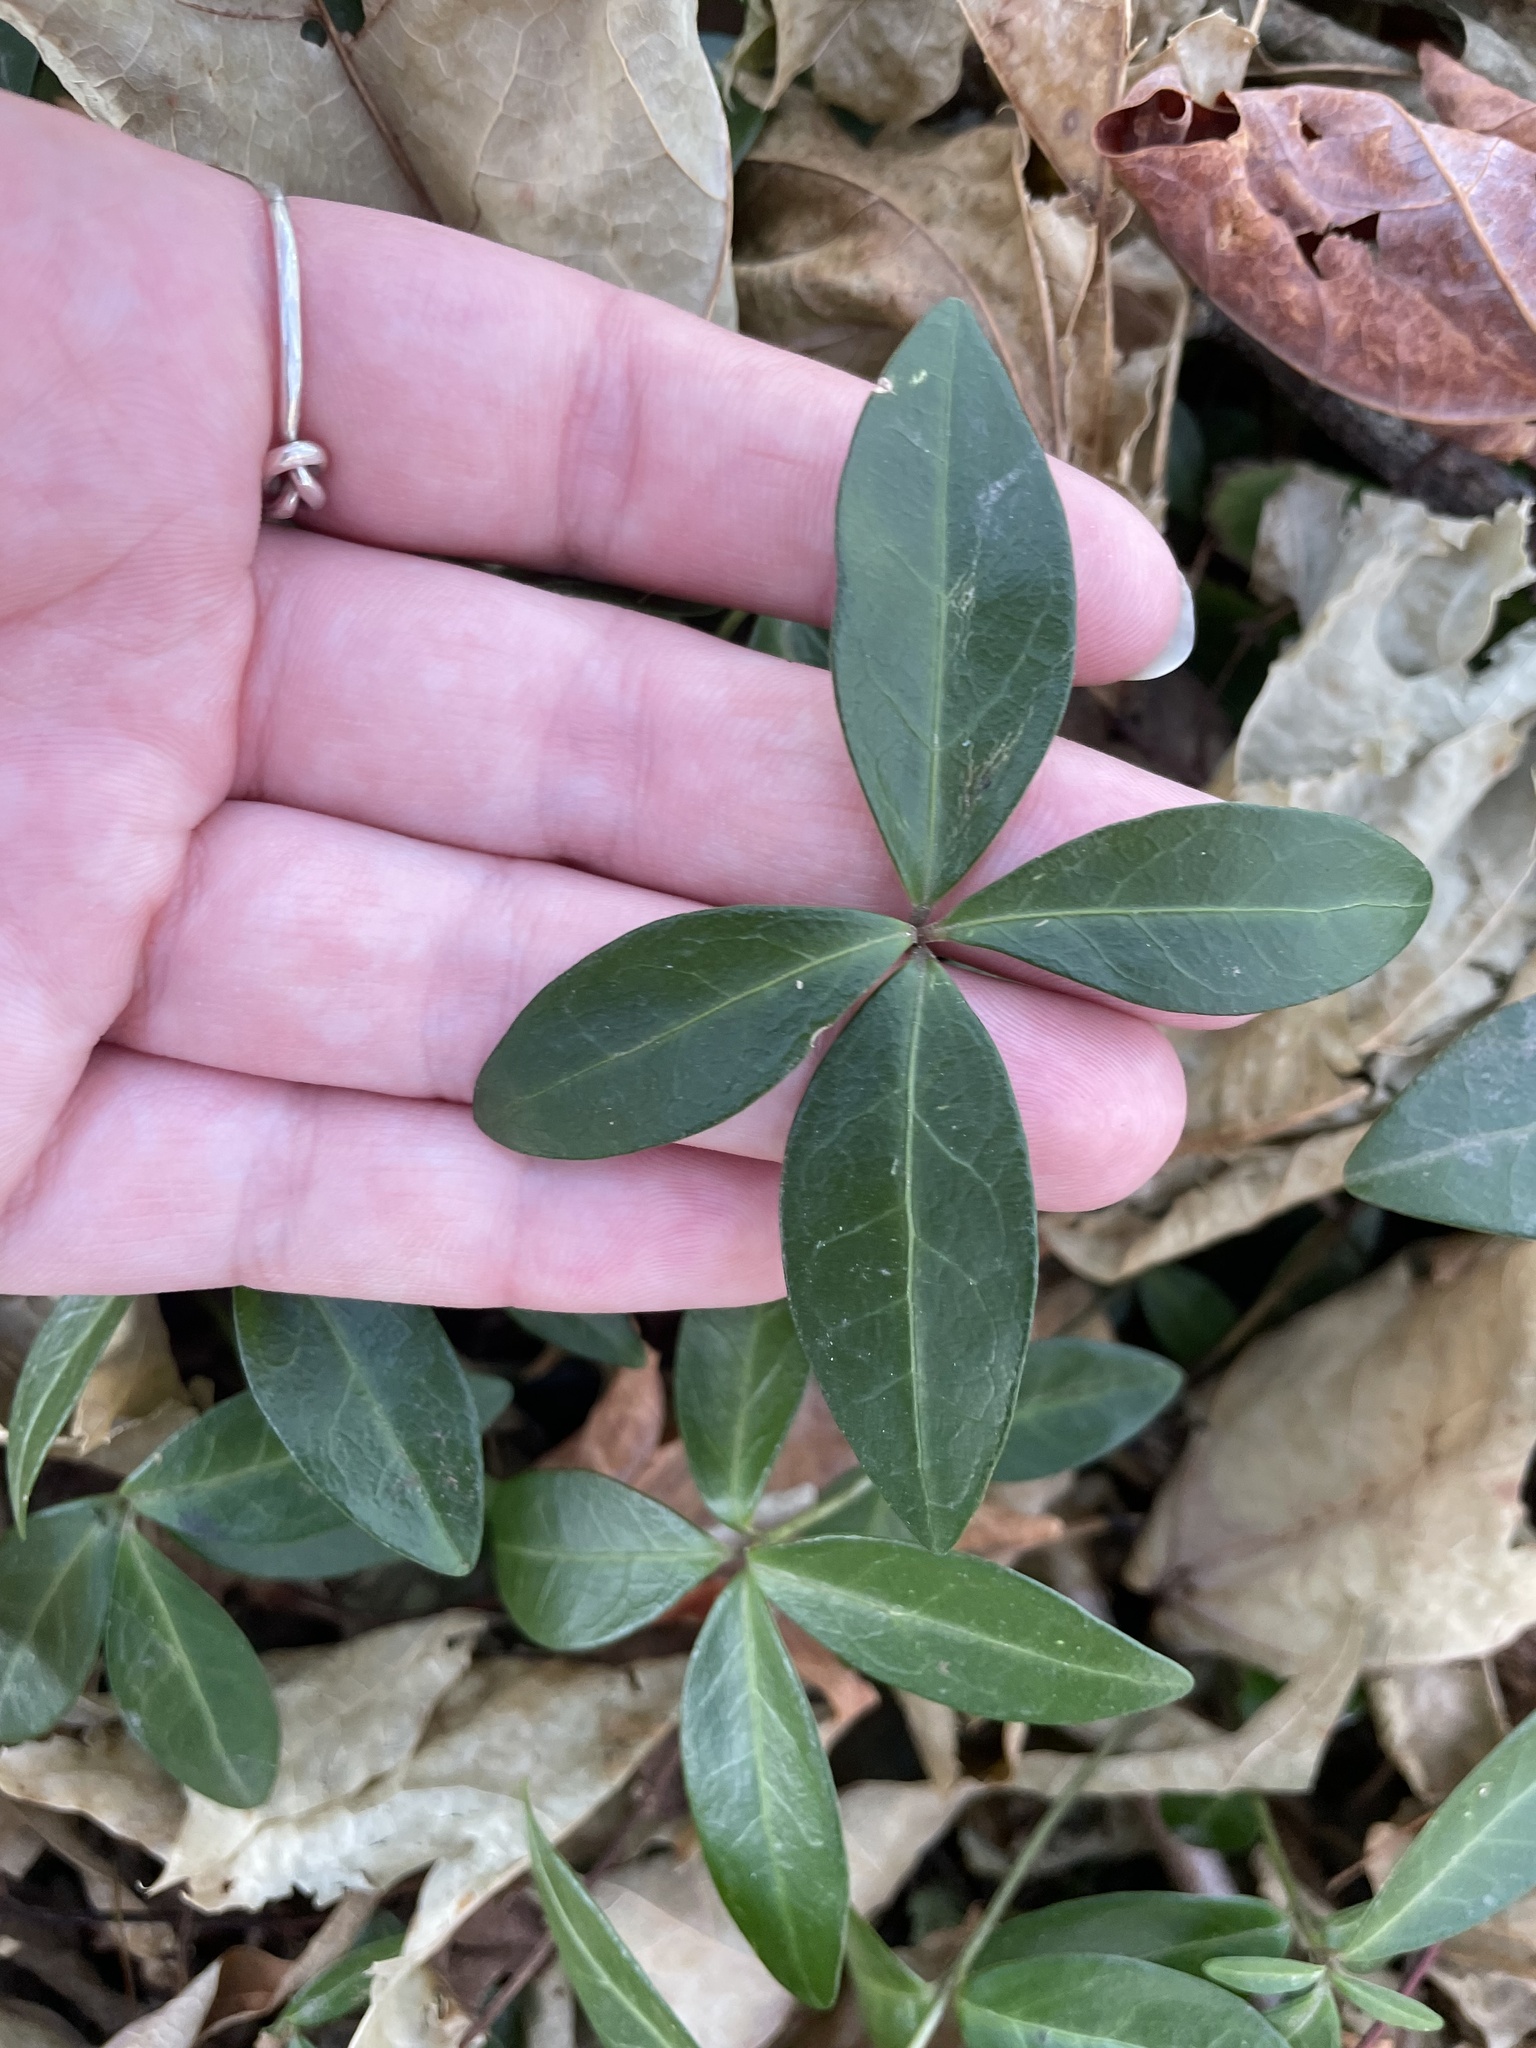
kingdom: Plantae
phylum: Tracheophyta
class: Magnoliopsida
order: Gentianales
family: Apocynaceae
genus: Vinca
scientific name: Vinca minor
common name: Lesser periwinkle
